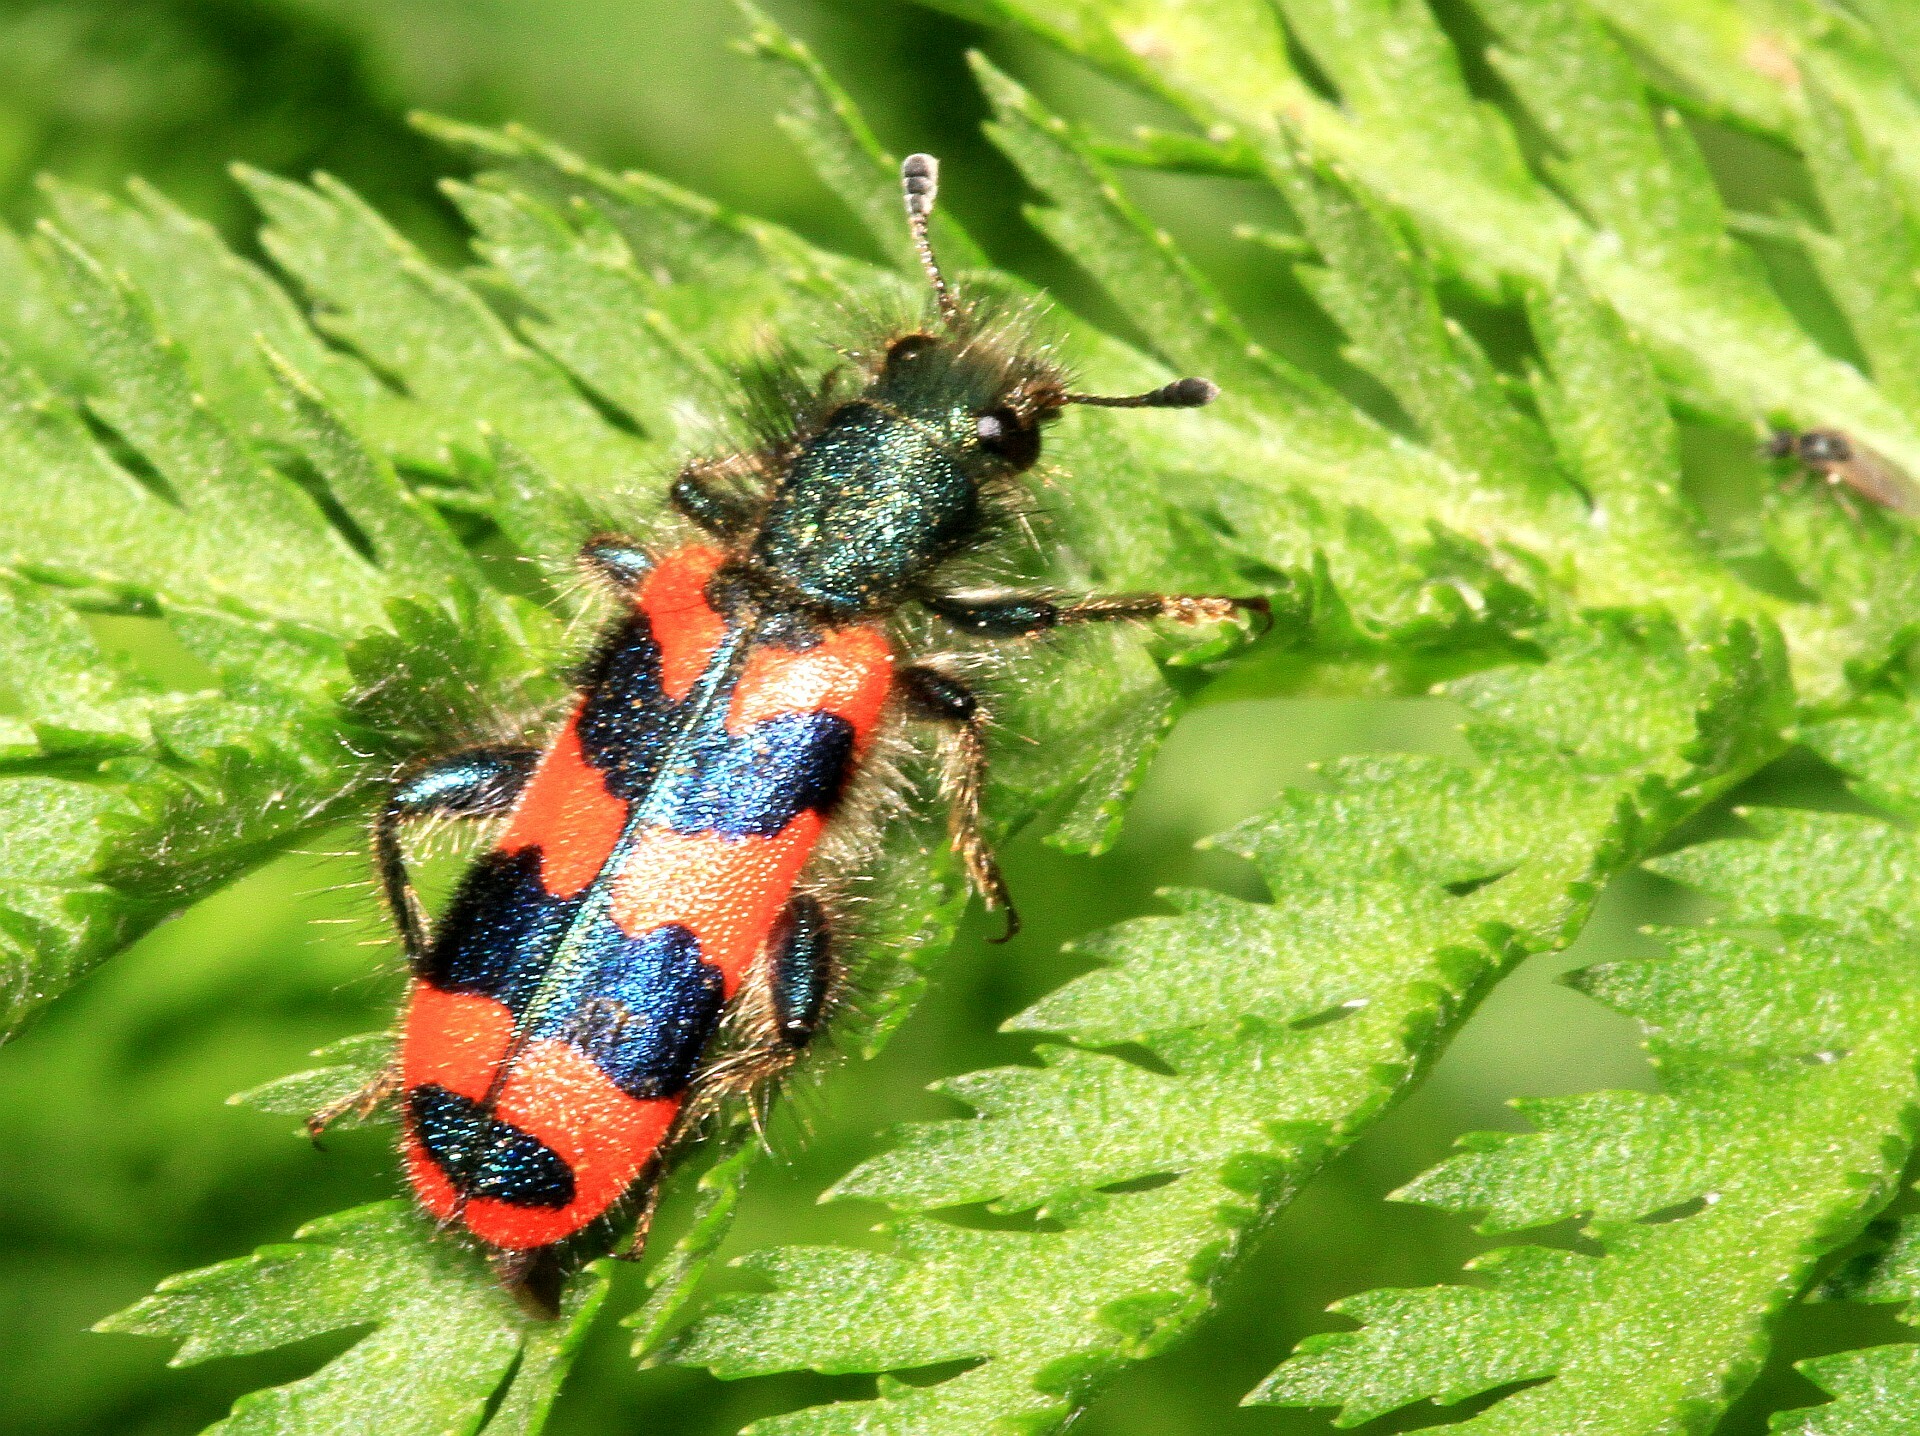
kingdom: Animalia
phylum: Arthropoda
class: Insecta
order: Coleoptera
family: Cleridae
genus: Trichodes
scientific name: Trichodes alvearius
